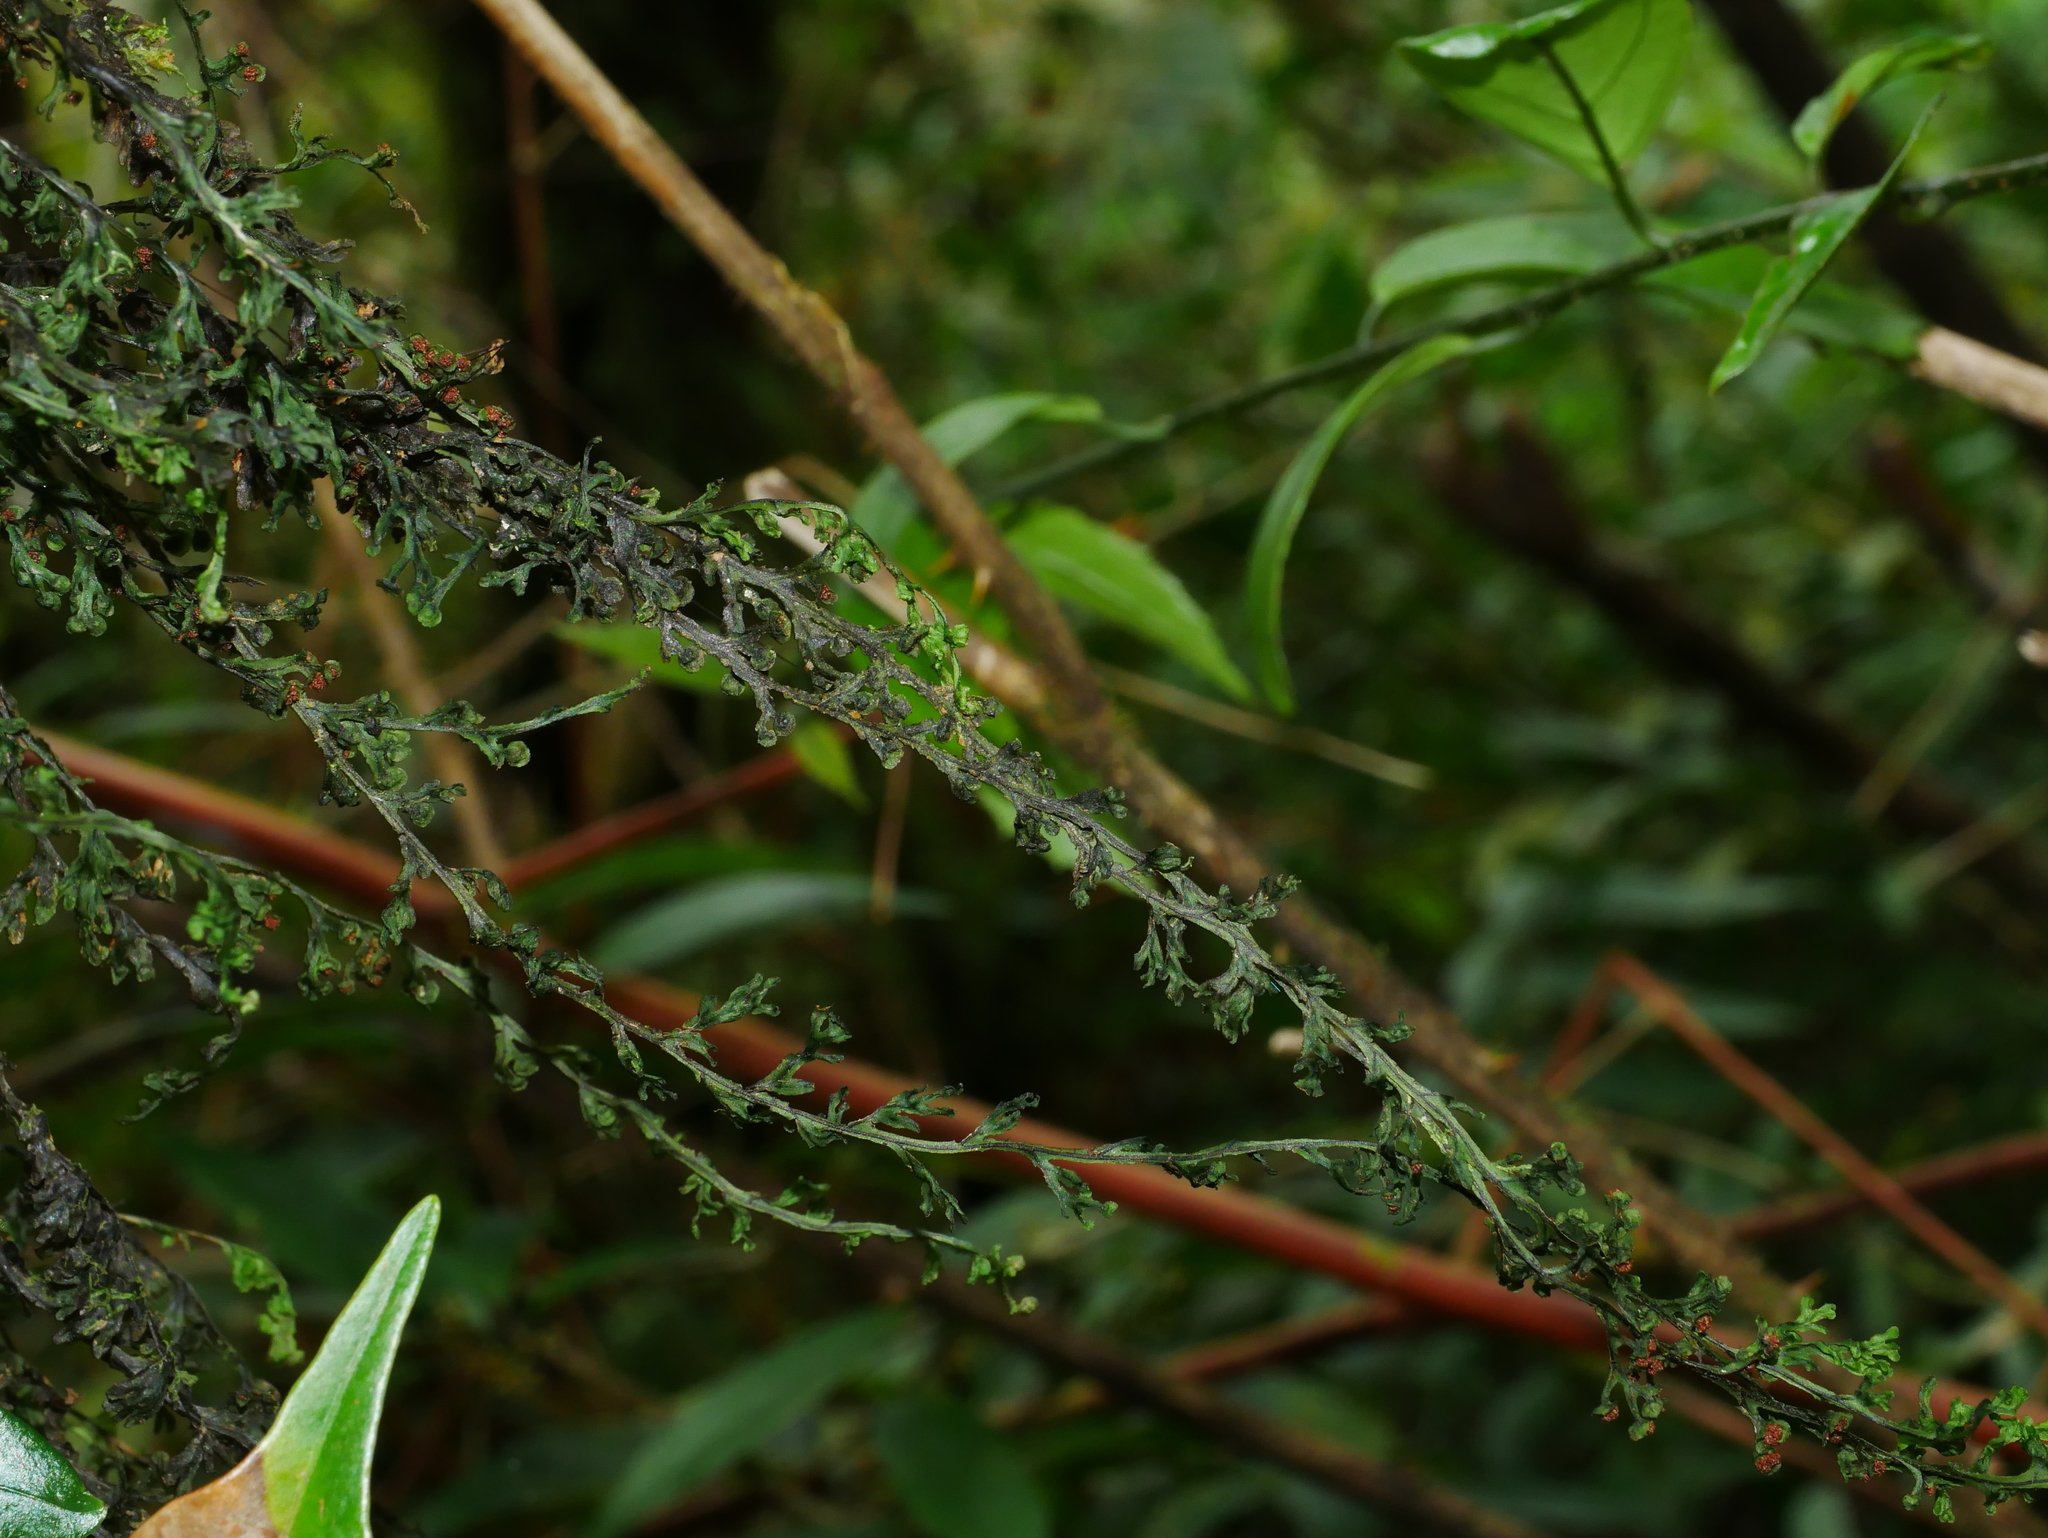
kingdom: Plantae
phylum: Tracheophyta
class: Polypodiopsida
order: Hymenophyllales
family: Hymenophyllaceae
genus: Hymenophyllum
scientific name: Hymenophyllum okadae
